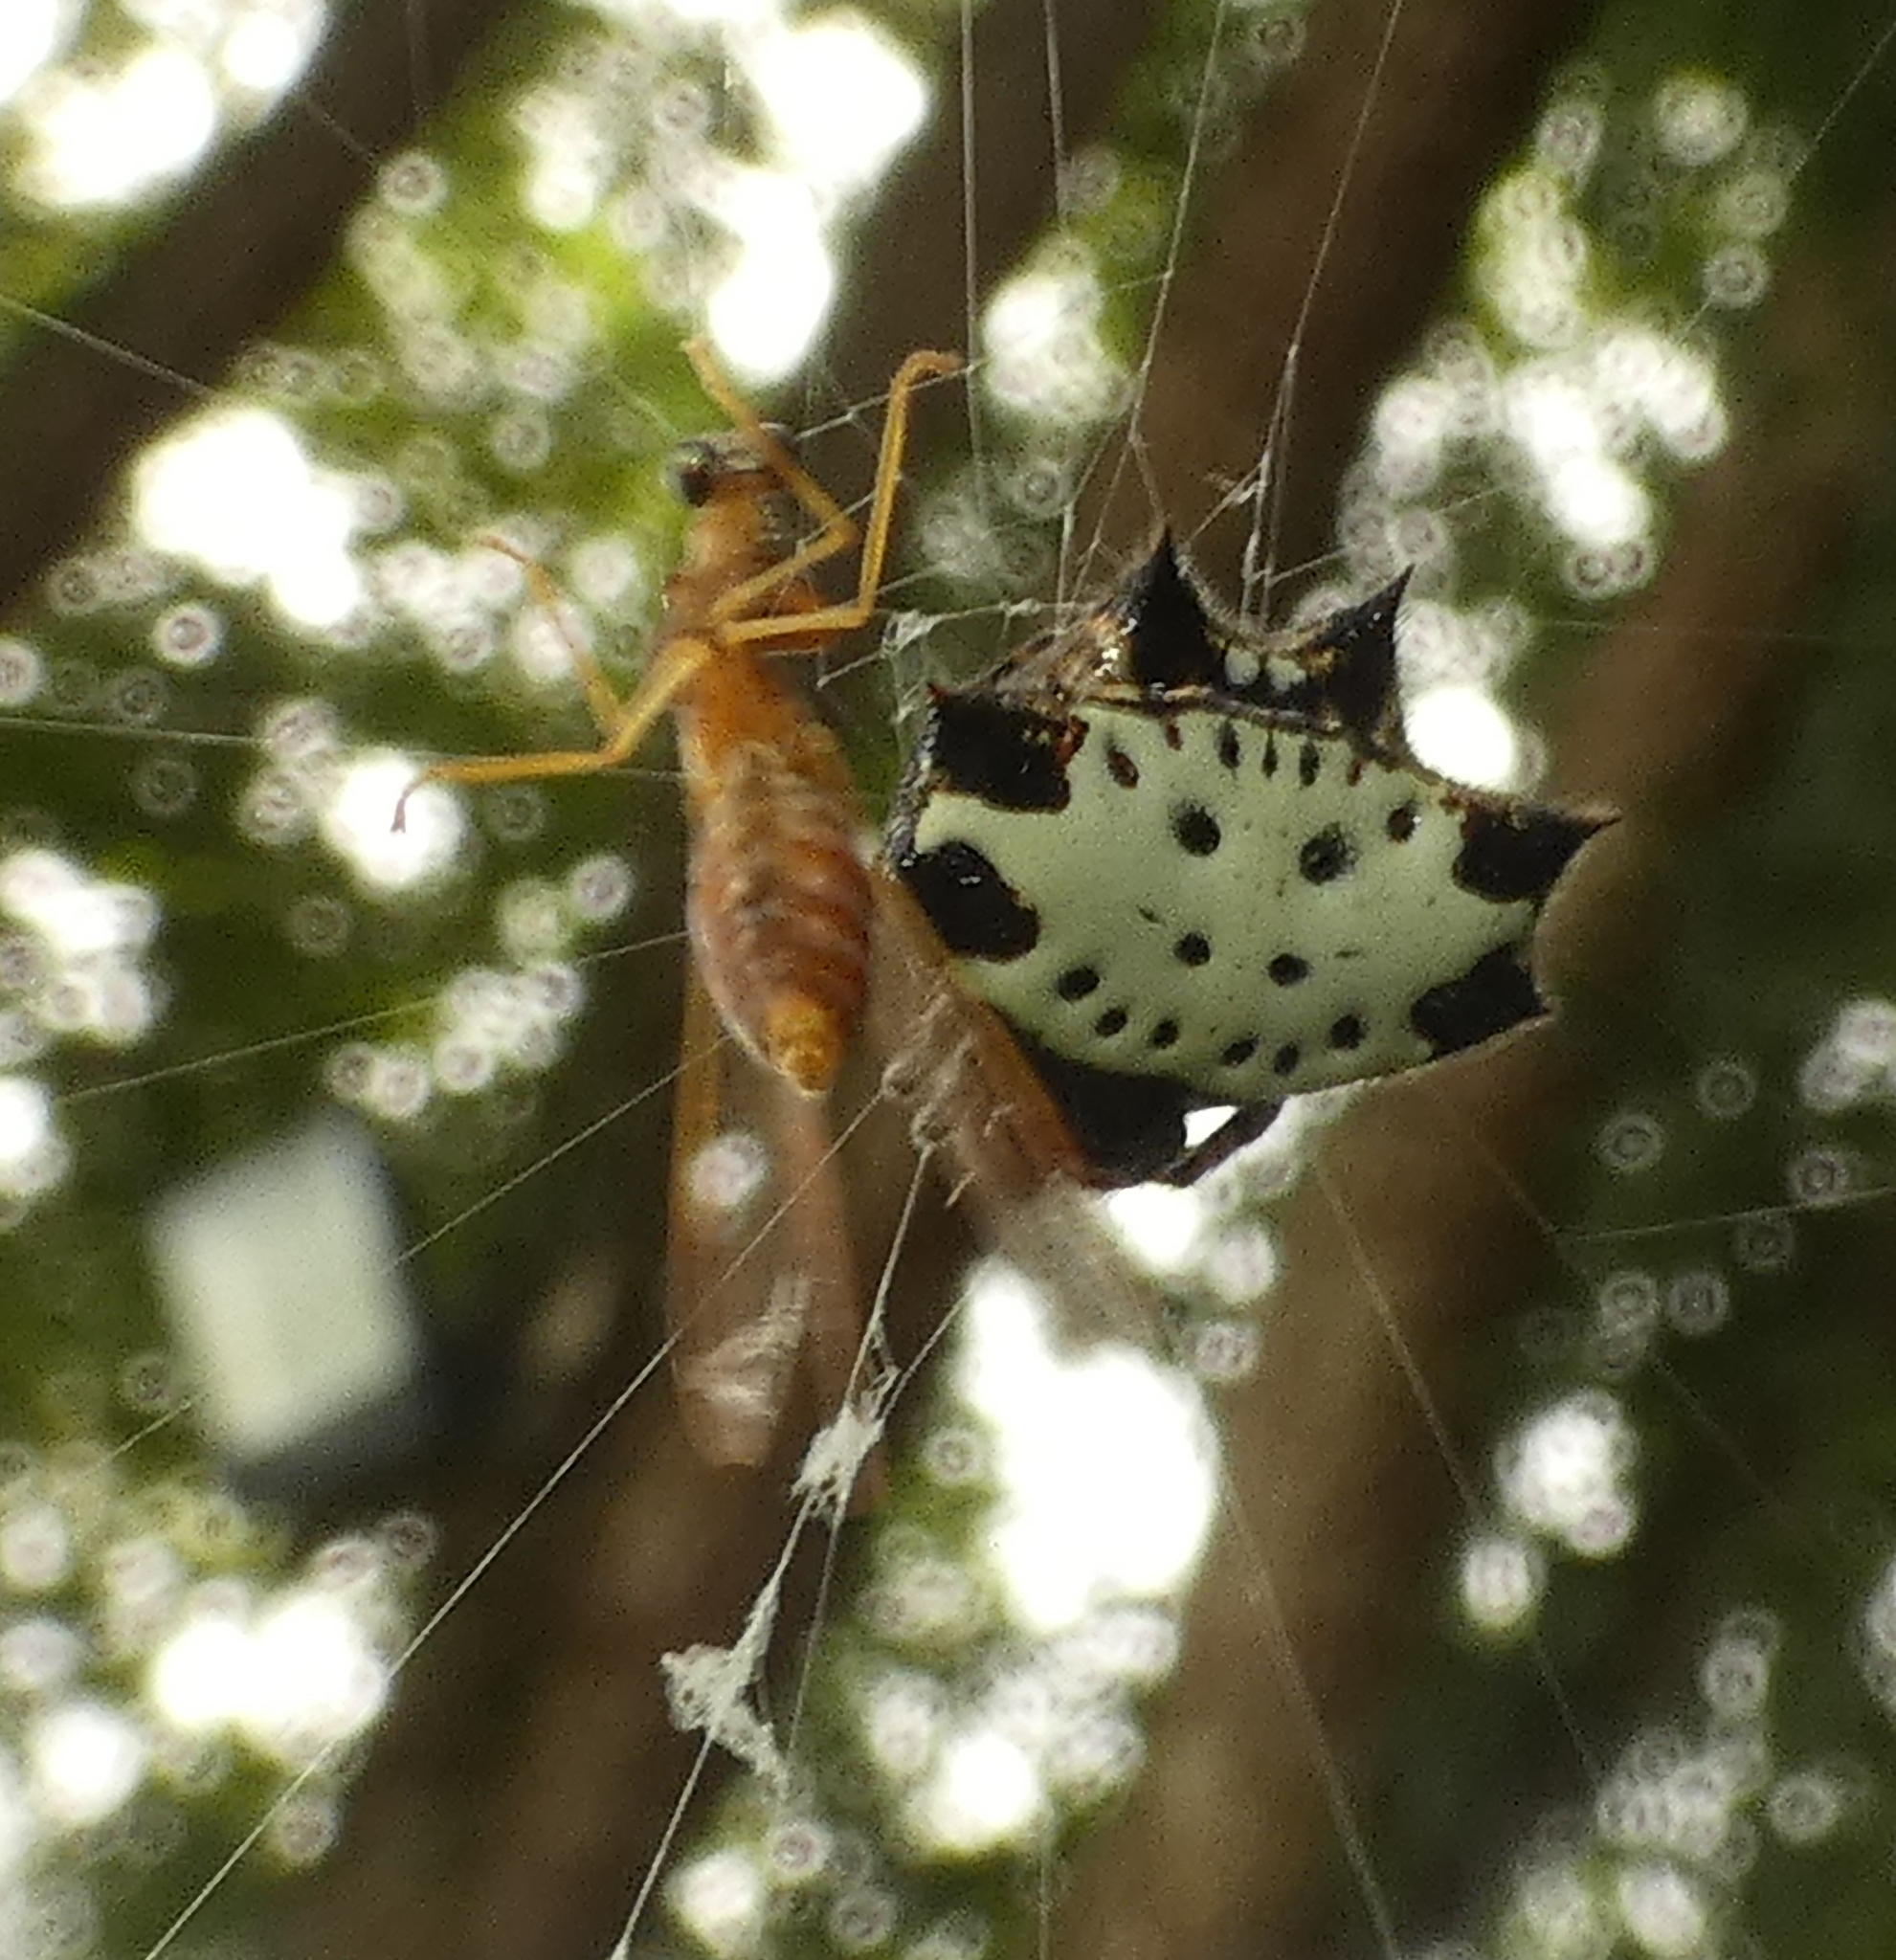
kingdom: Animalia
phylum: Arthropoda
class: Arachnida
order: Araneae
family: Araneidae
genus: Gasteracantha
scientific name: Gasteracantha cancriformis
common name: Orb weavers
